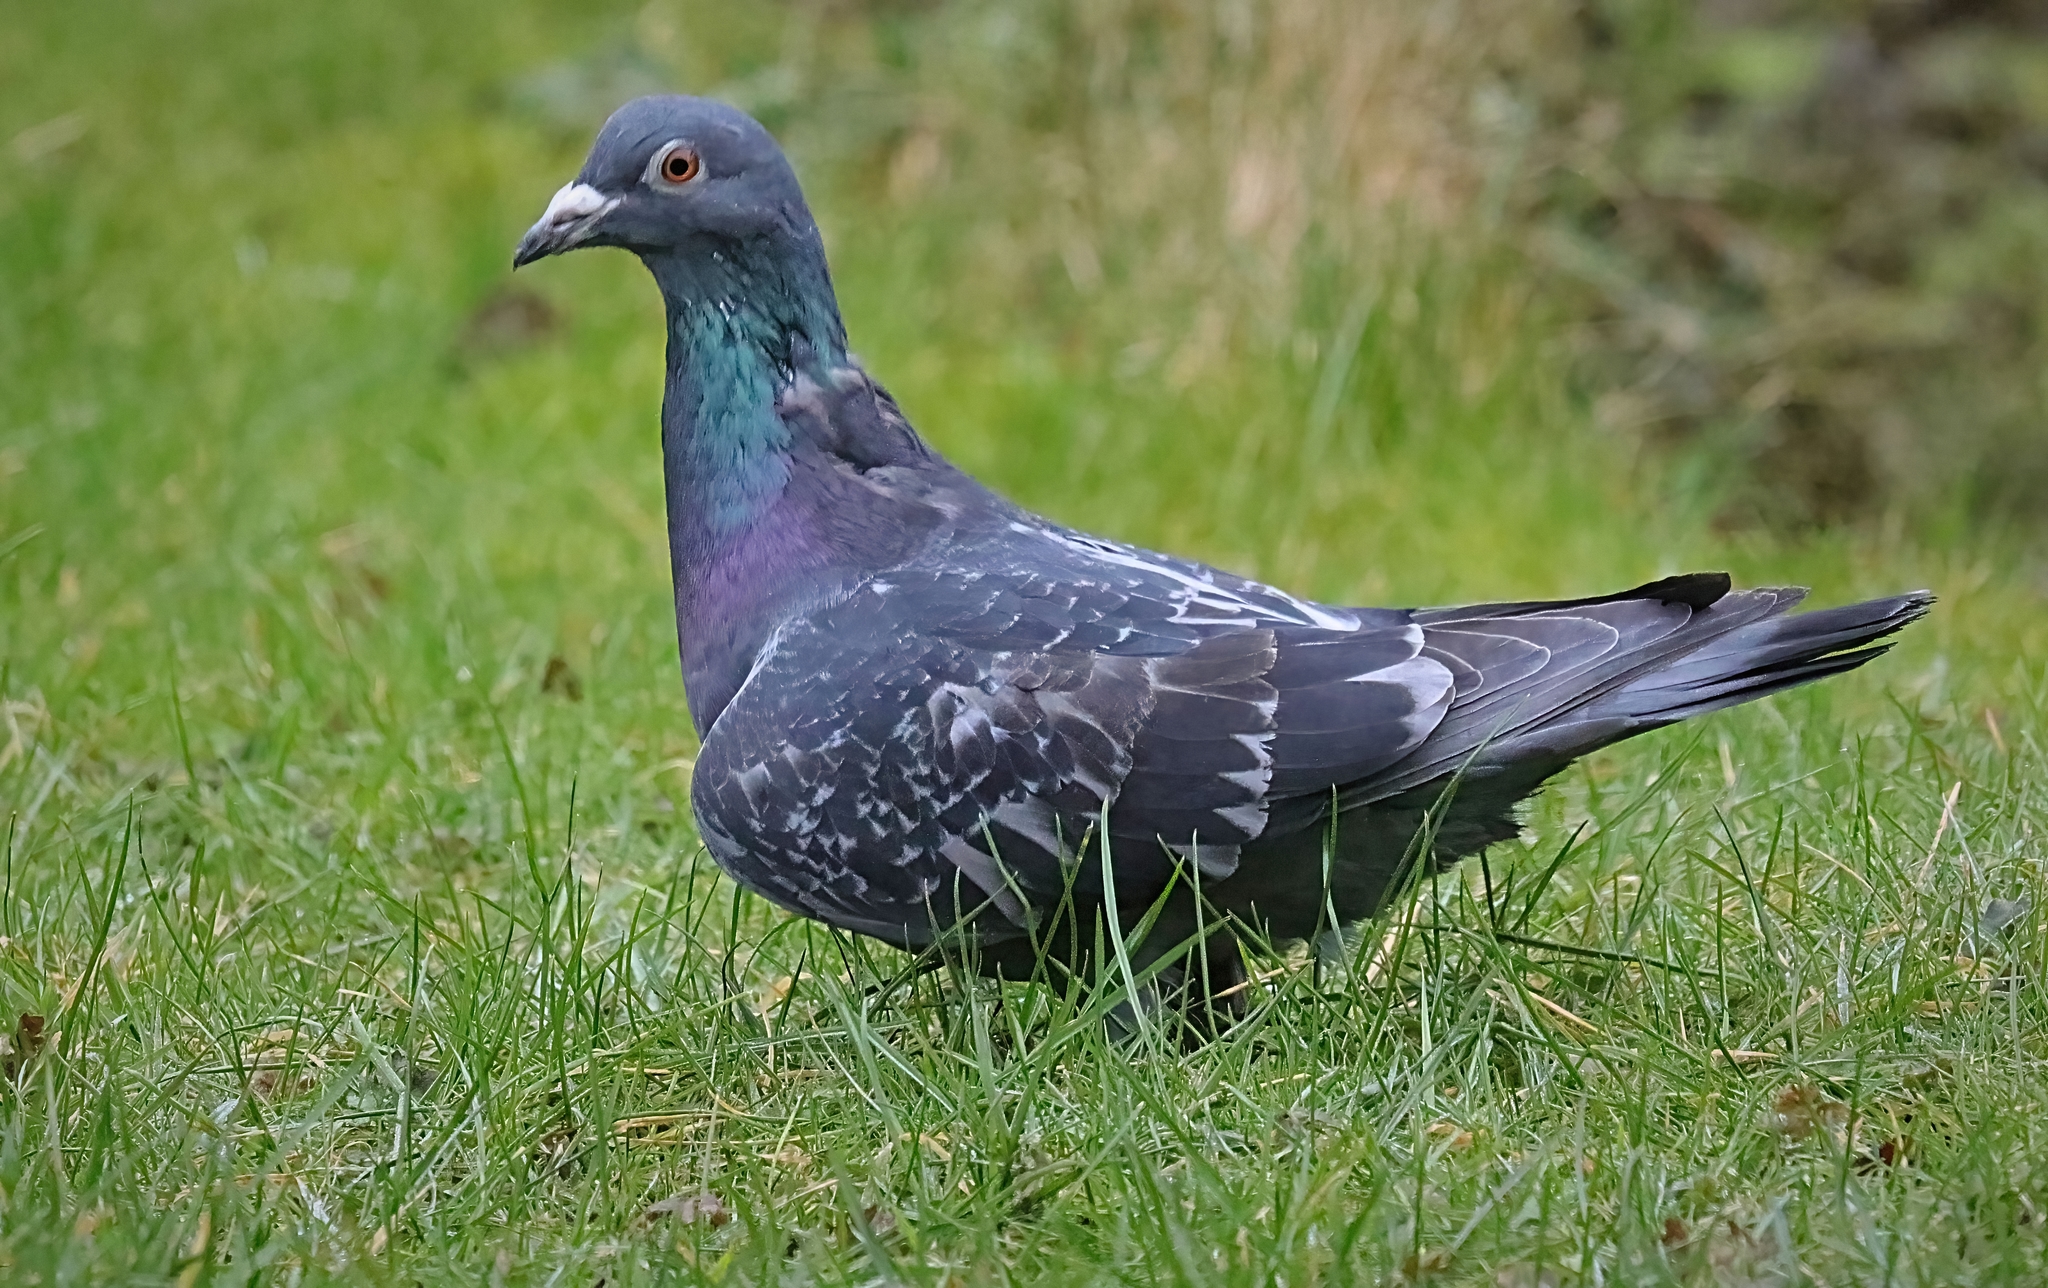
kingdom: Animalia
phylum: Chordata
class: Aves
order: Columbiformes
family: Columbidae
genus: Columba
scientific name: Columba livia
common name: Rock pigeon
